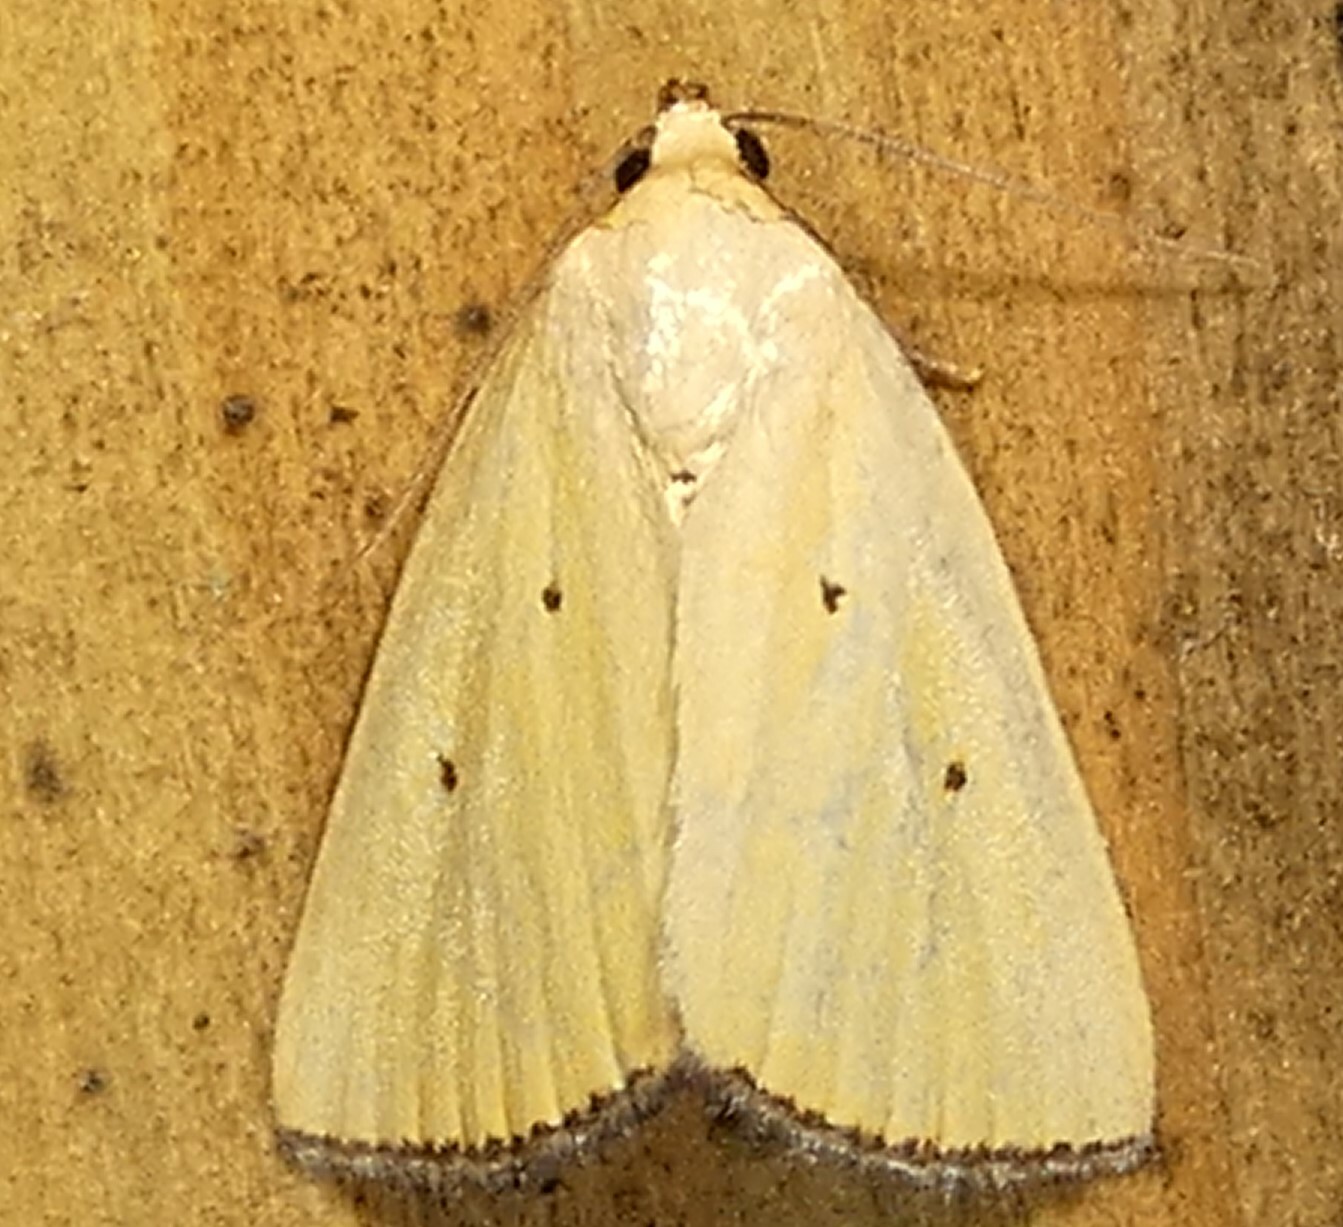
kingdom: Animalia
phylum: Arthropoda
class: Insecta
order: Lepidoptera
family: Noctuidae
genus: Marimatha
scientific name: Marimatha nigrofimbria
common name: Black-bordered lemon moth
